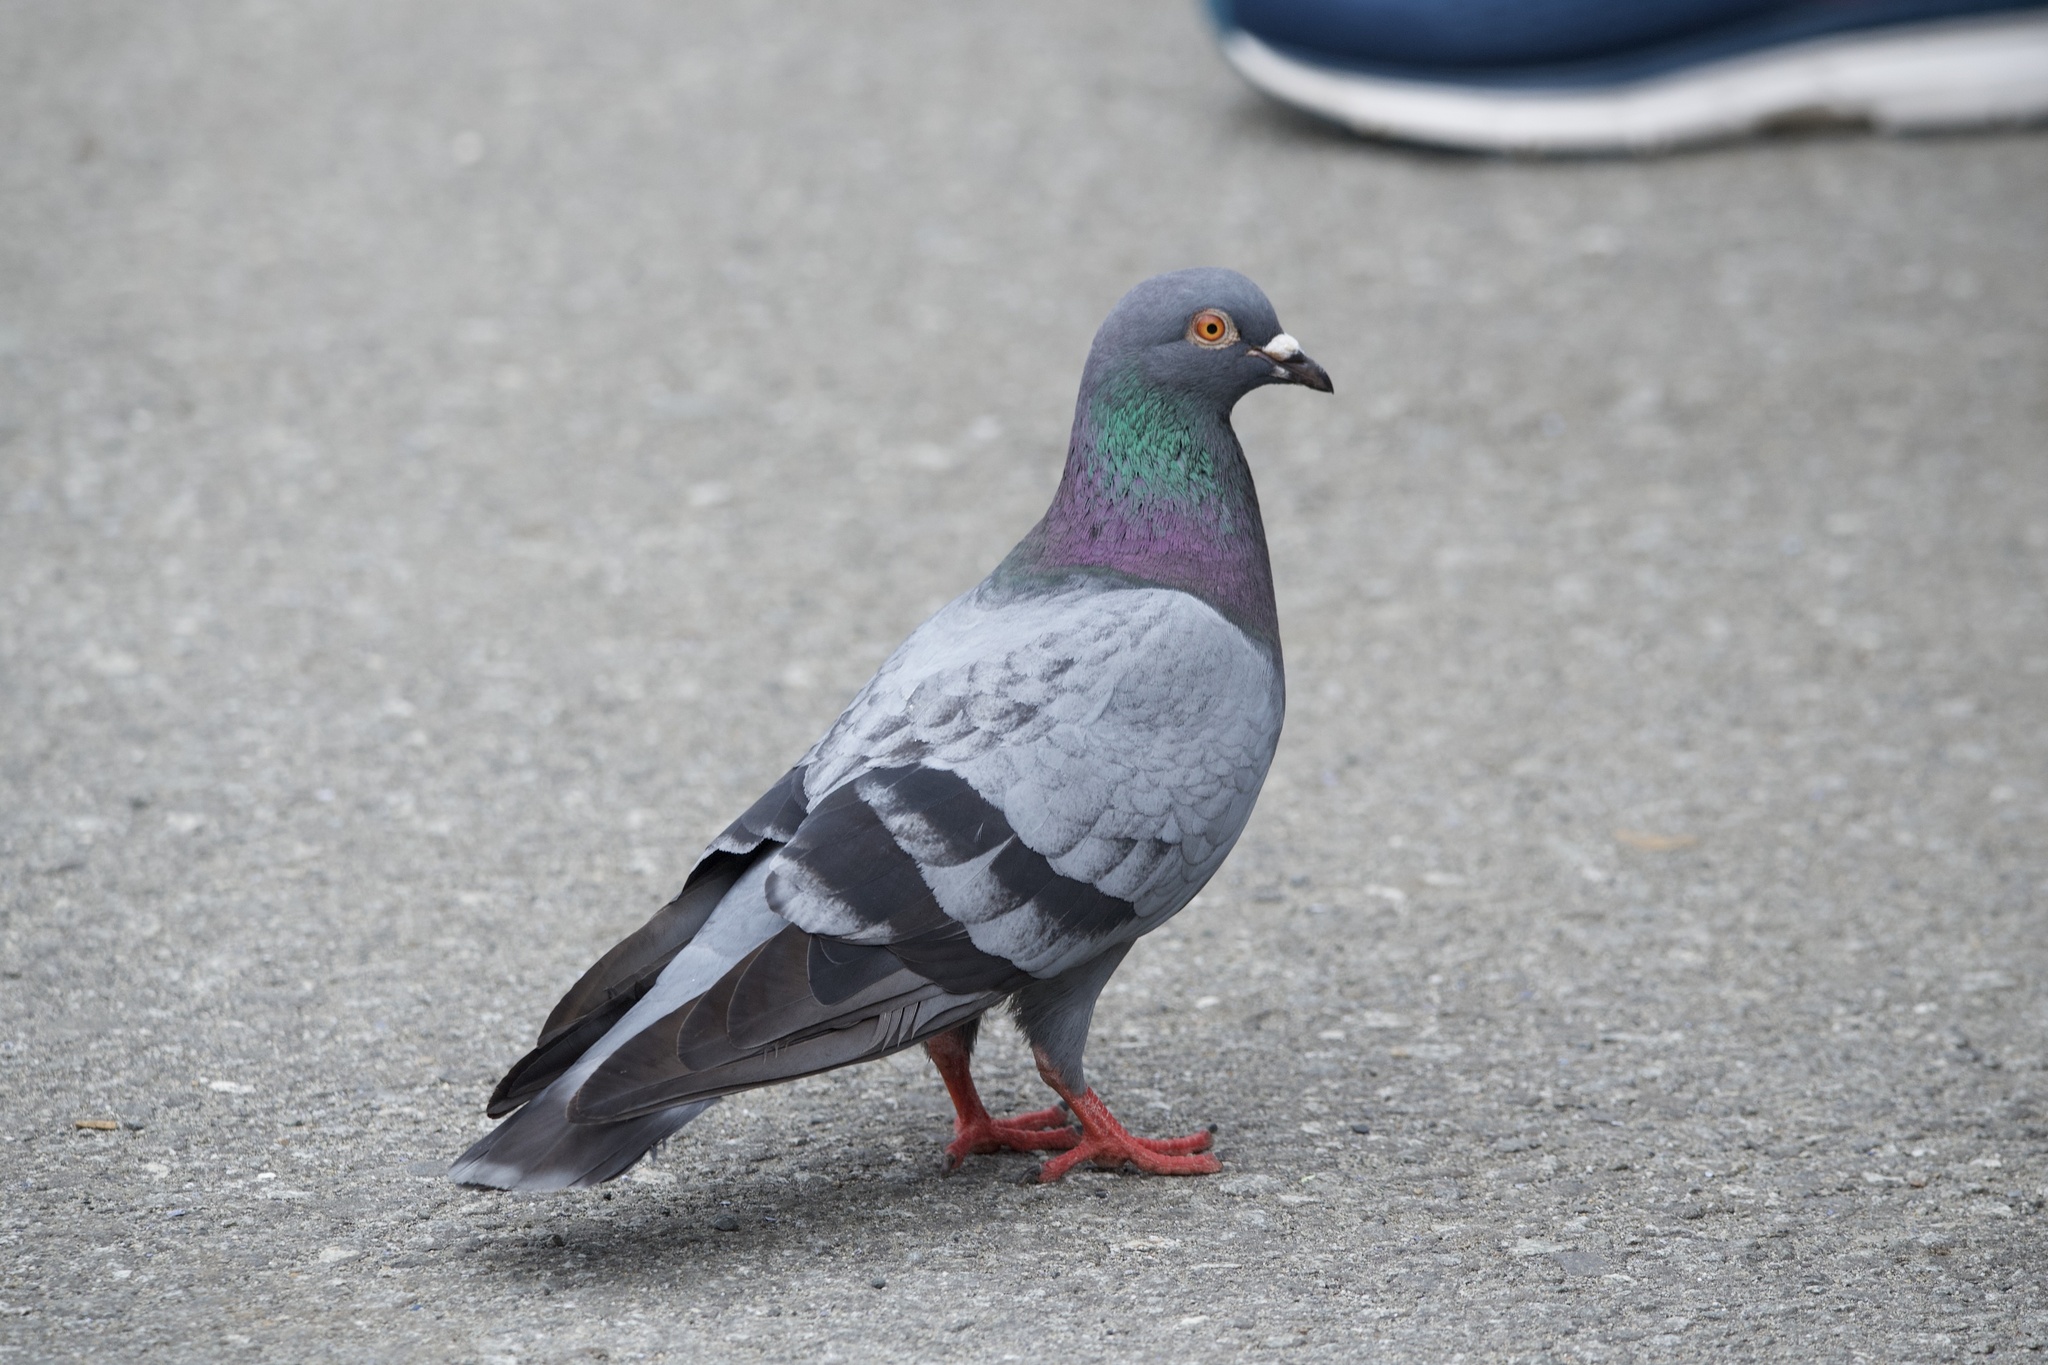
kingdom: Animalia
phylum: Chordata
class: Aves
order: Columbiformes
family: Columbidae
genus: Columba
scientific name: Columba livia
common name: Rock pigeon
